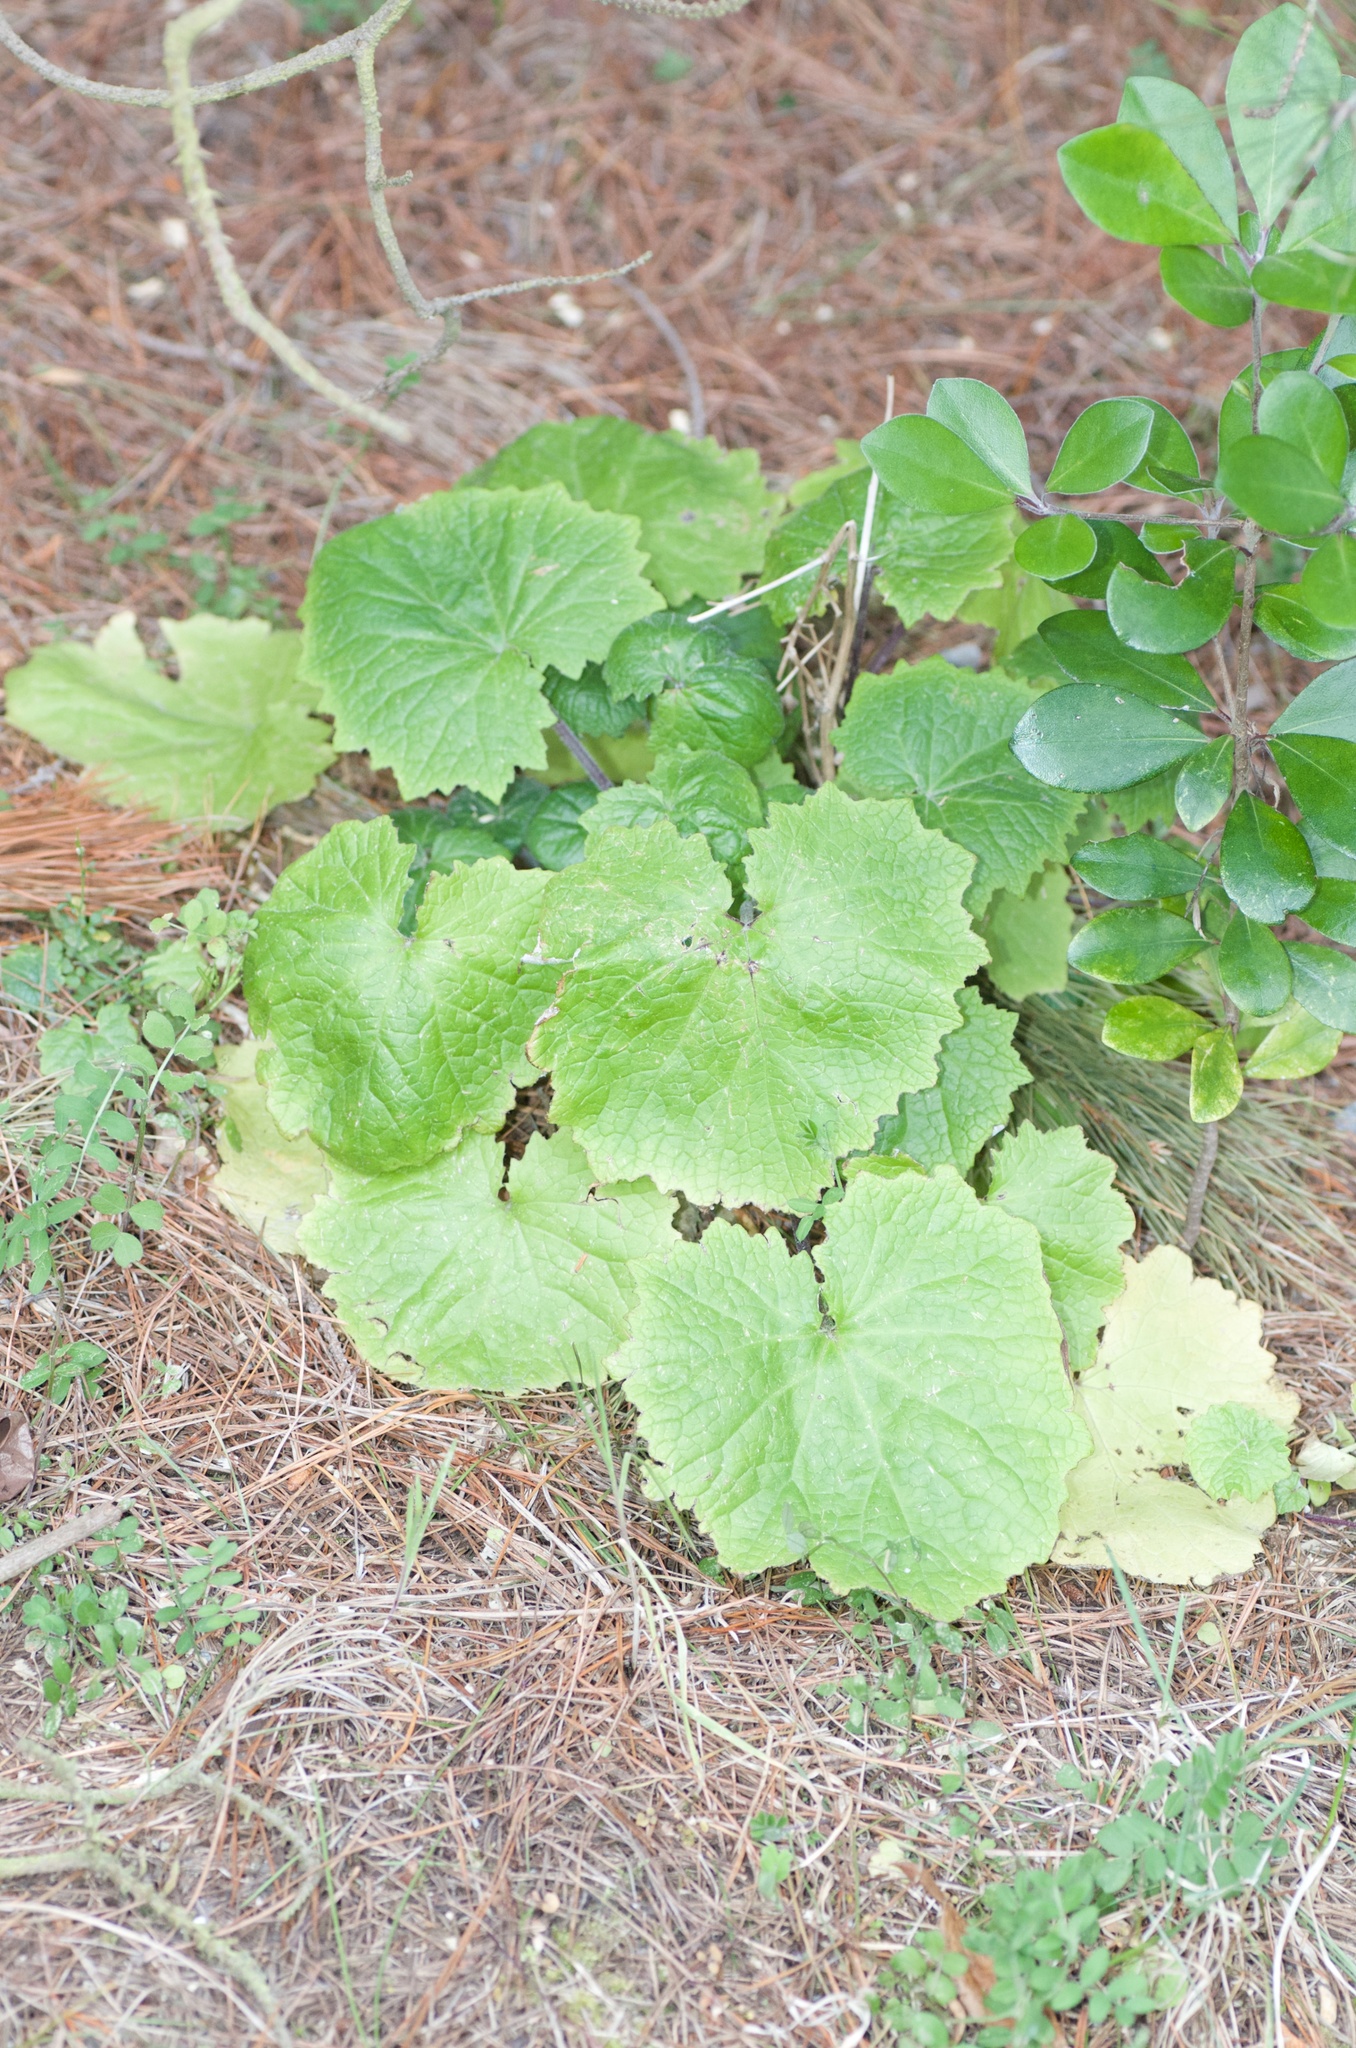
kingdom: Plantae
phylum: Tracheophyta
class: Magnoliopsida
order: Asterales
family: Asteraceae
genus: Pericallis
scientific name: Pericallis hybrida
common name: Cineraria
